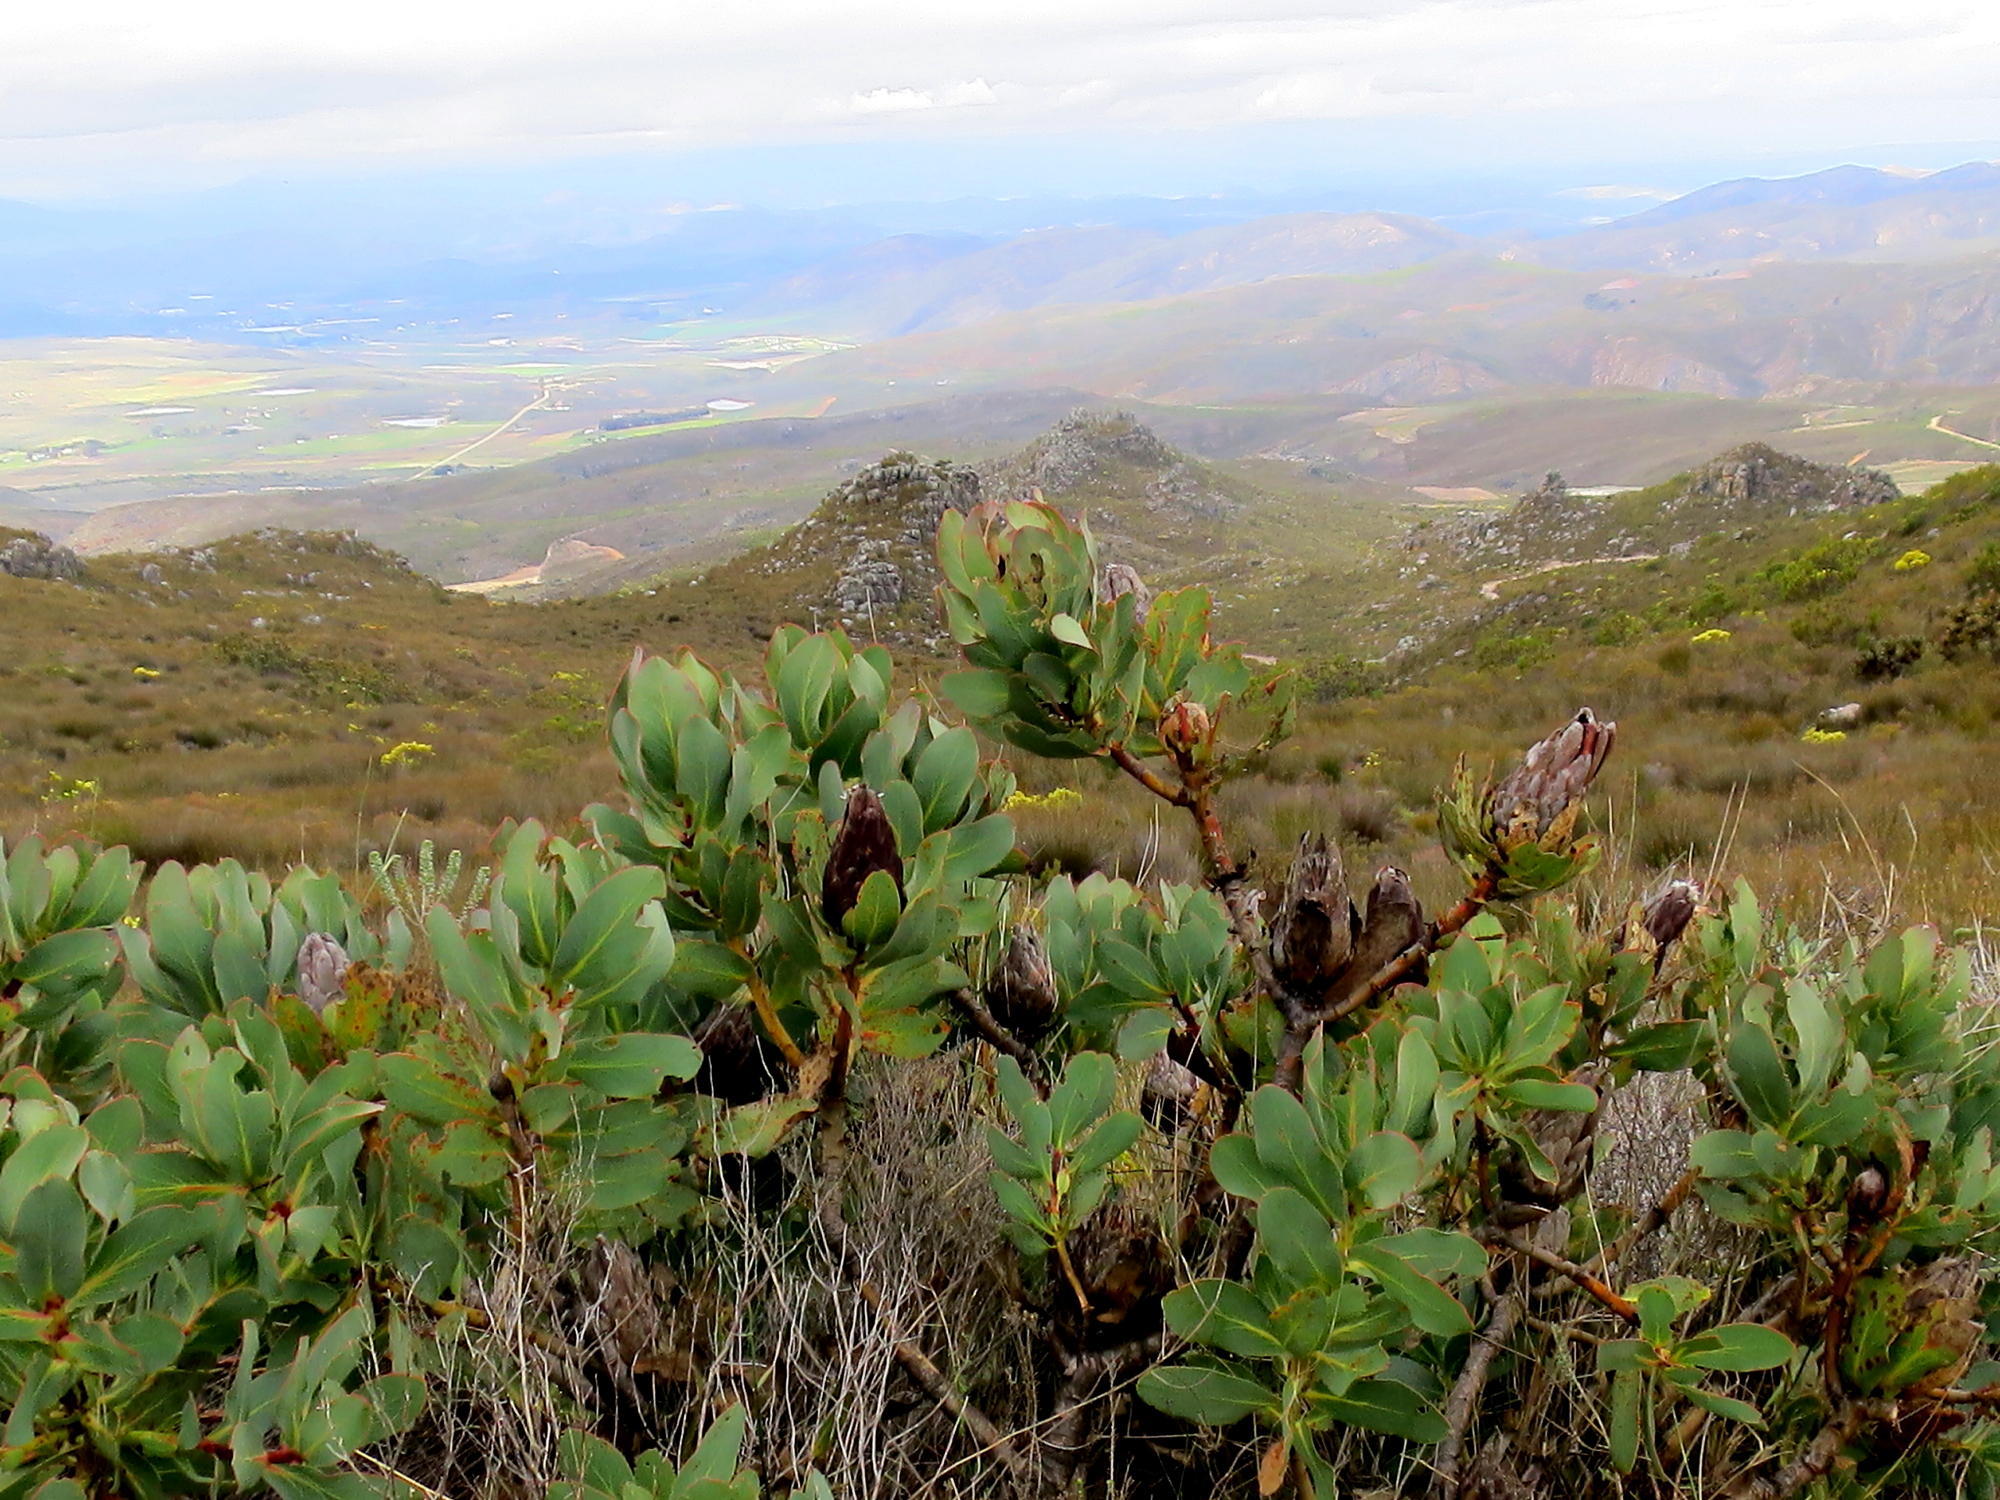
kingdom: Plantae
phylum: Tracheophyta
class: Magnoliopsida
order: Proteales
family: Proteaceae
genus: Protea
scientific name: Protea grandiceps
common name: Red sugarbush
